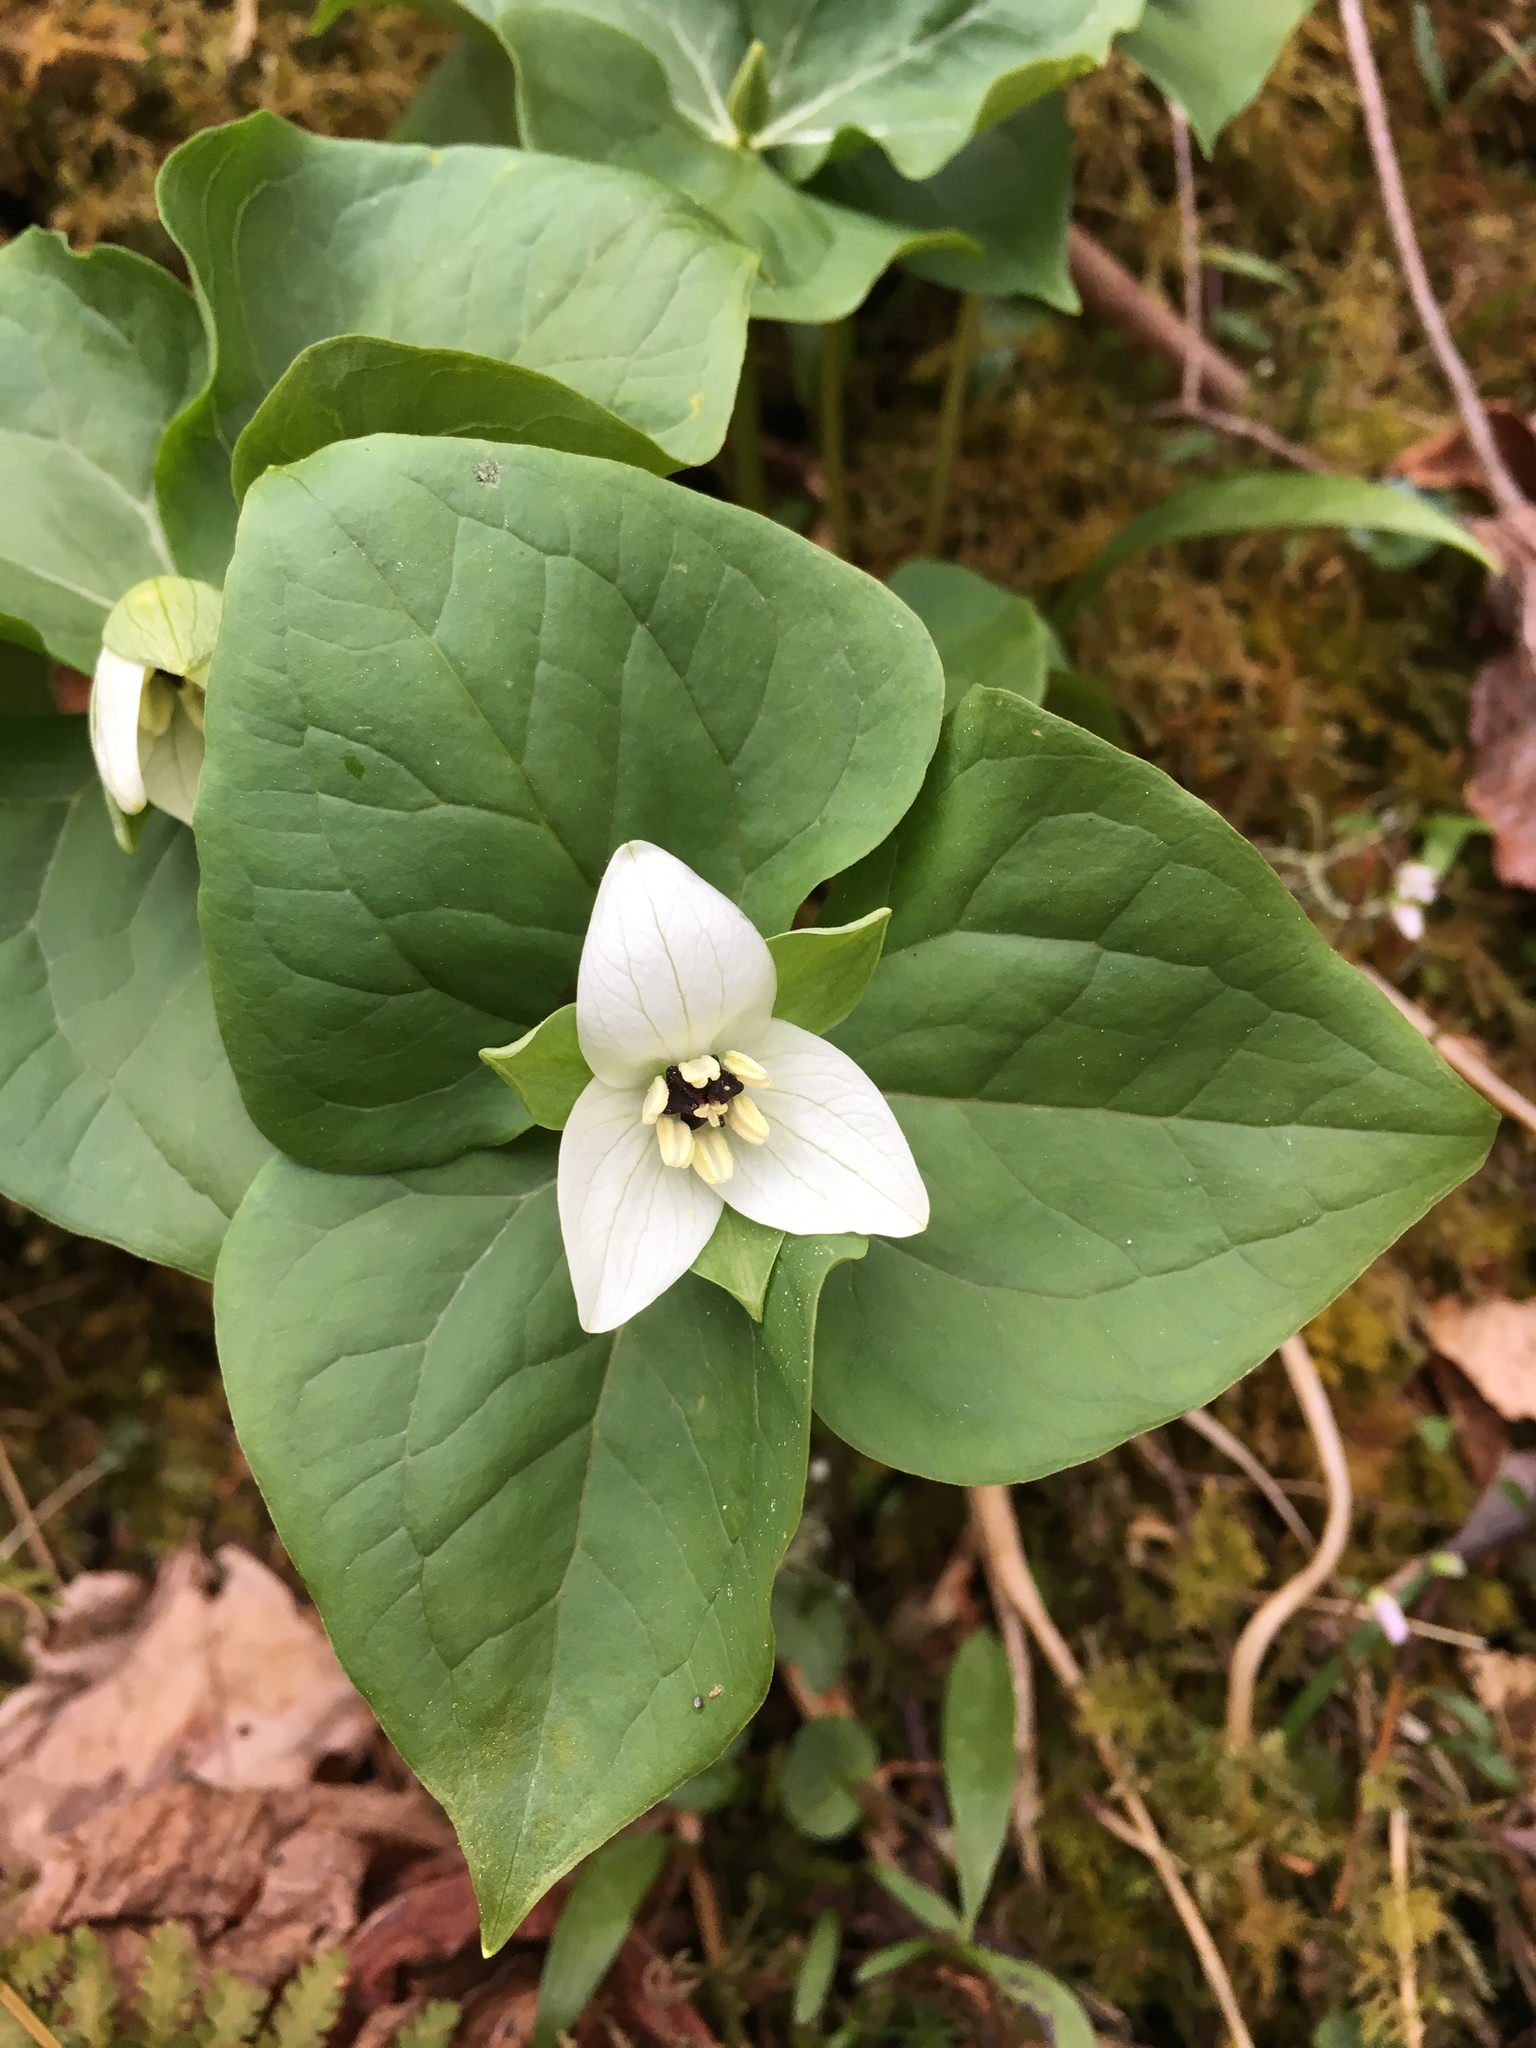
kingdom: Plantae
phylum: Tracheophyta
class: Liliopsida
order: Liliales
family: Melanthiaceae
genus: Trillium
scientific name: Trillium erectum
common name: Purple trillium
